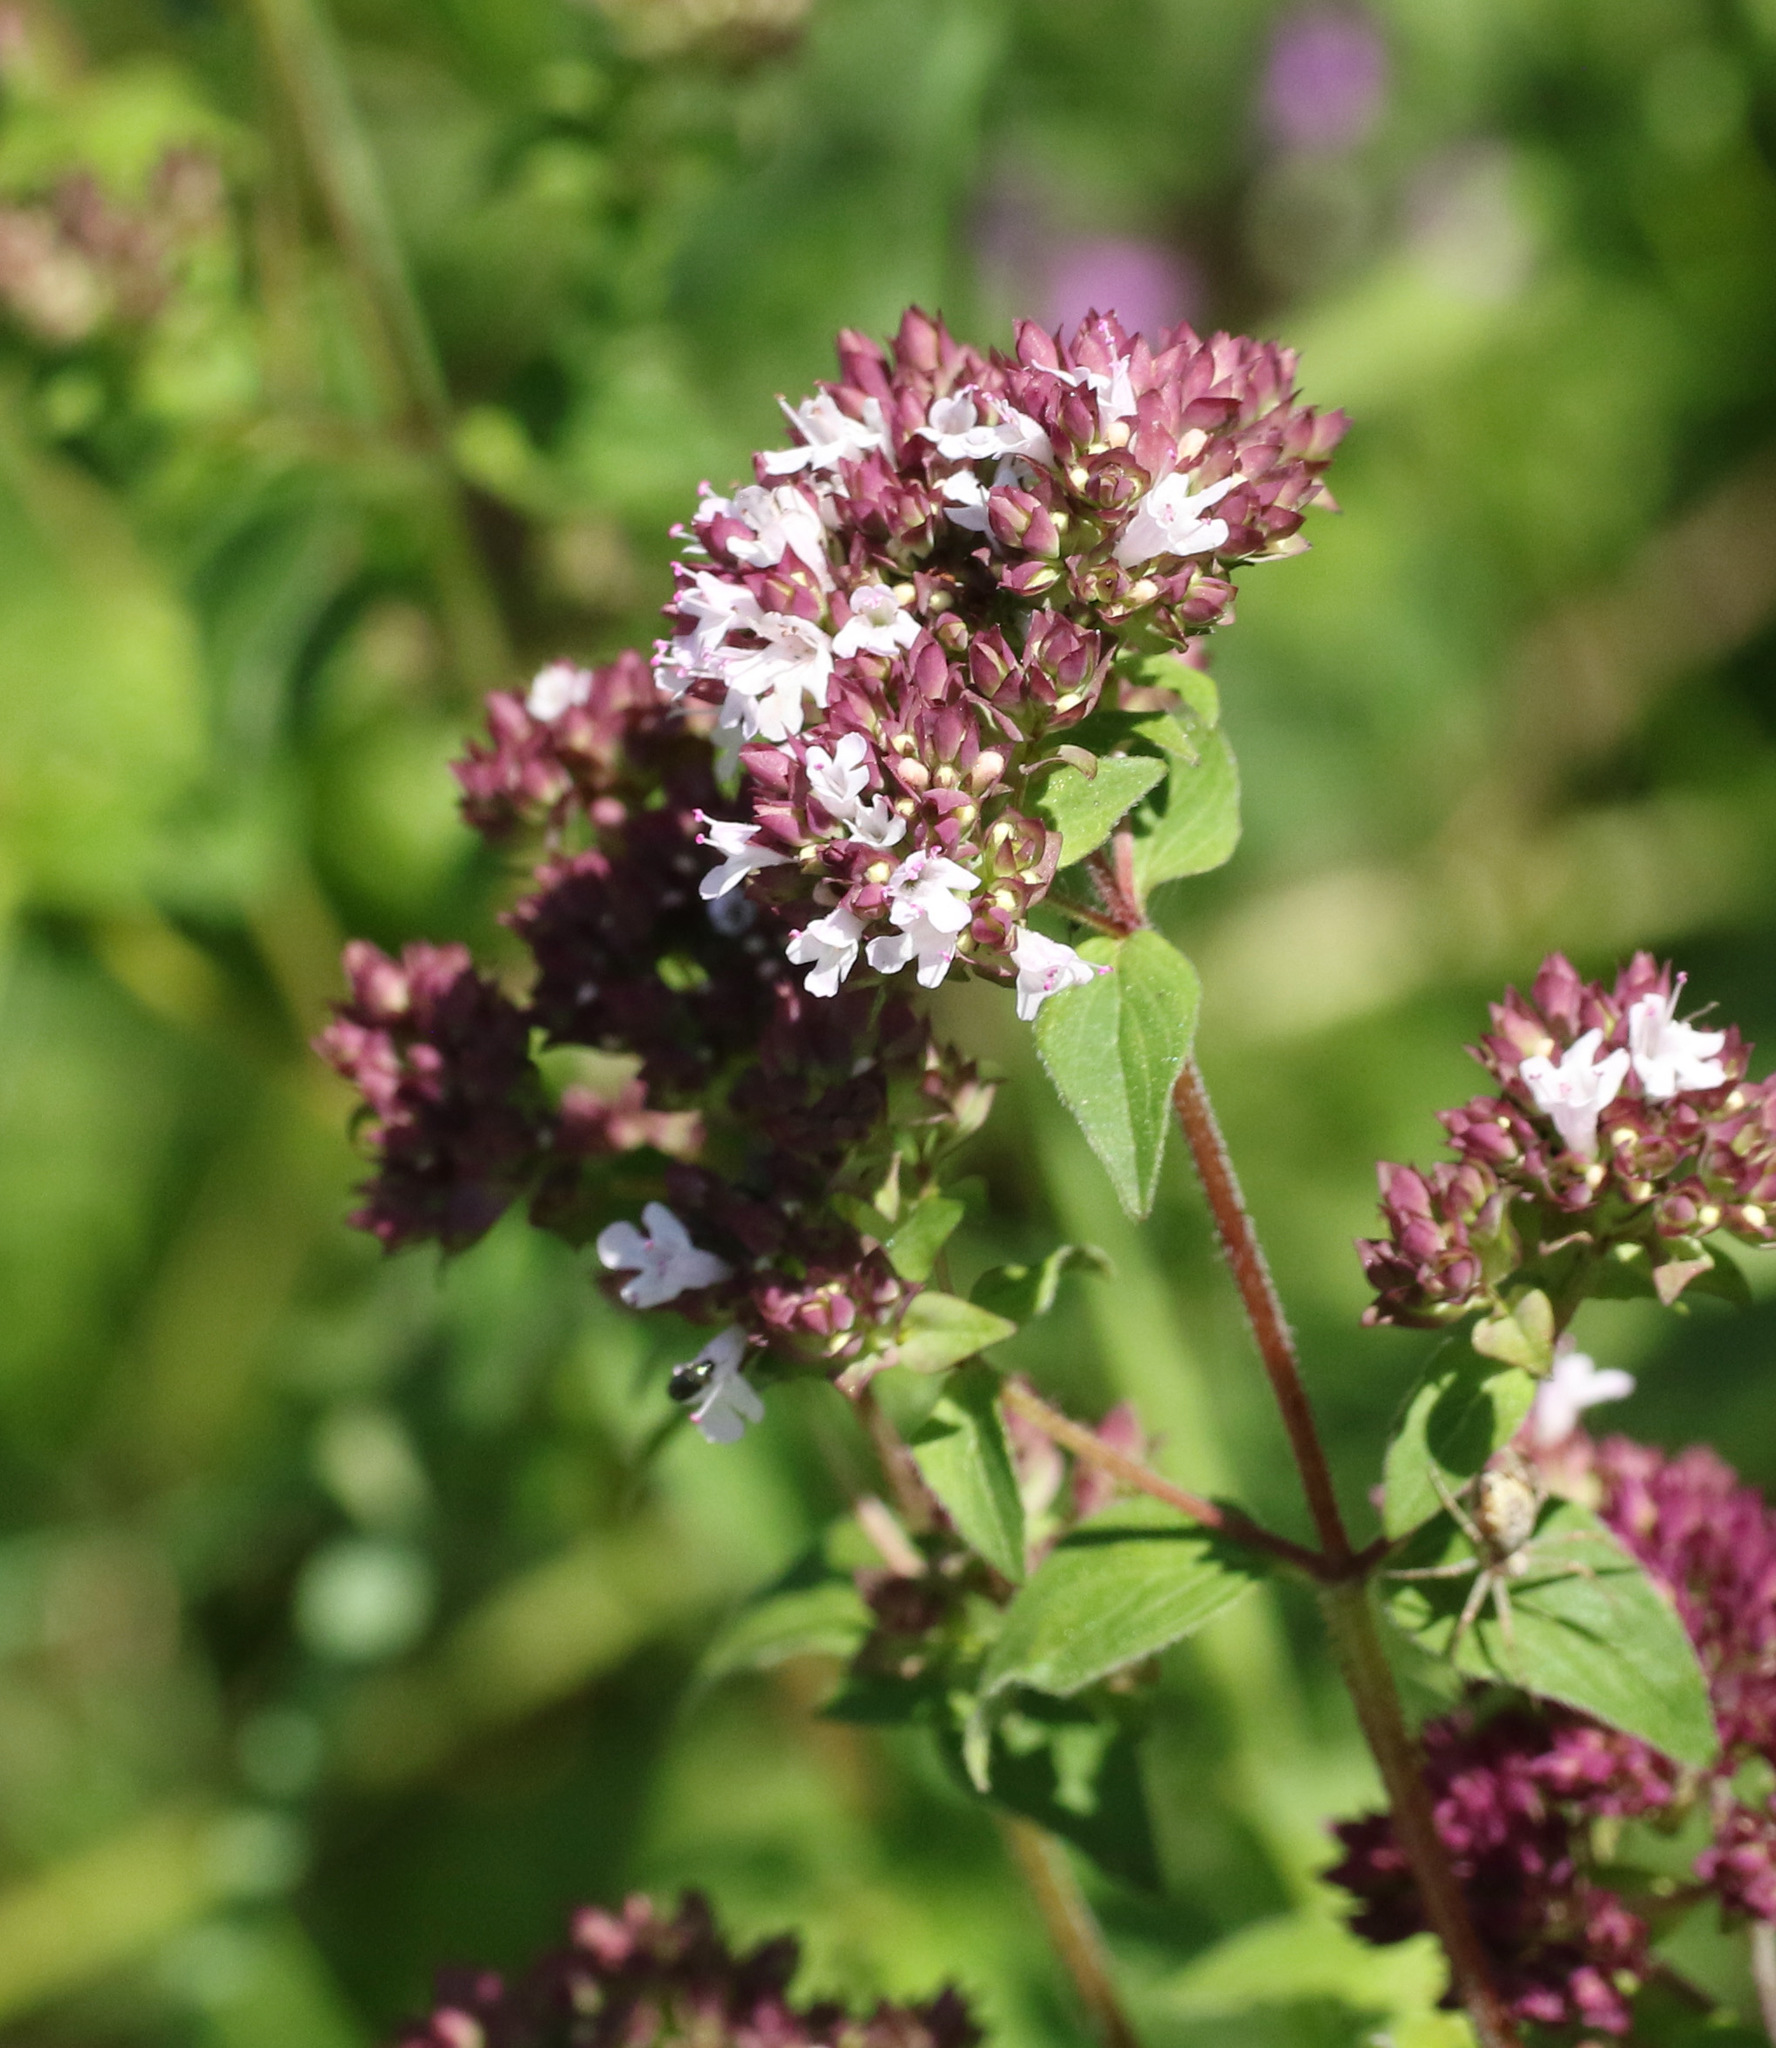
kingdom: Plantae
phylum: Tracheophyta
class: Magnoliopsida
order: Lamiales
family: Lamiaceae
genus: Origanum
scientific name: Origanum vulgare
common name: Wild marjoram
